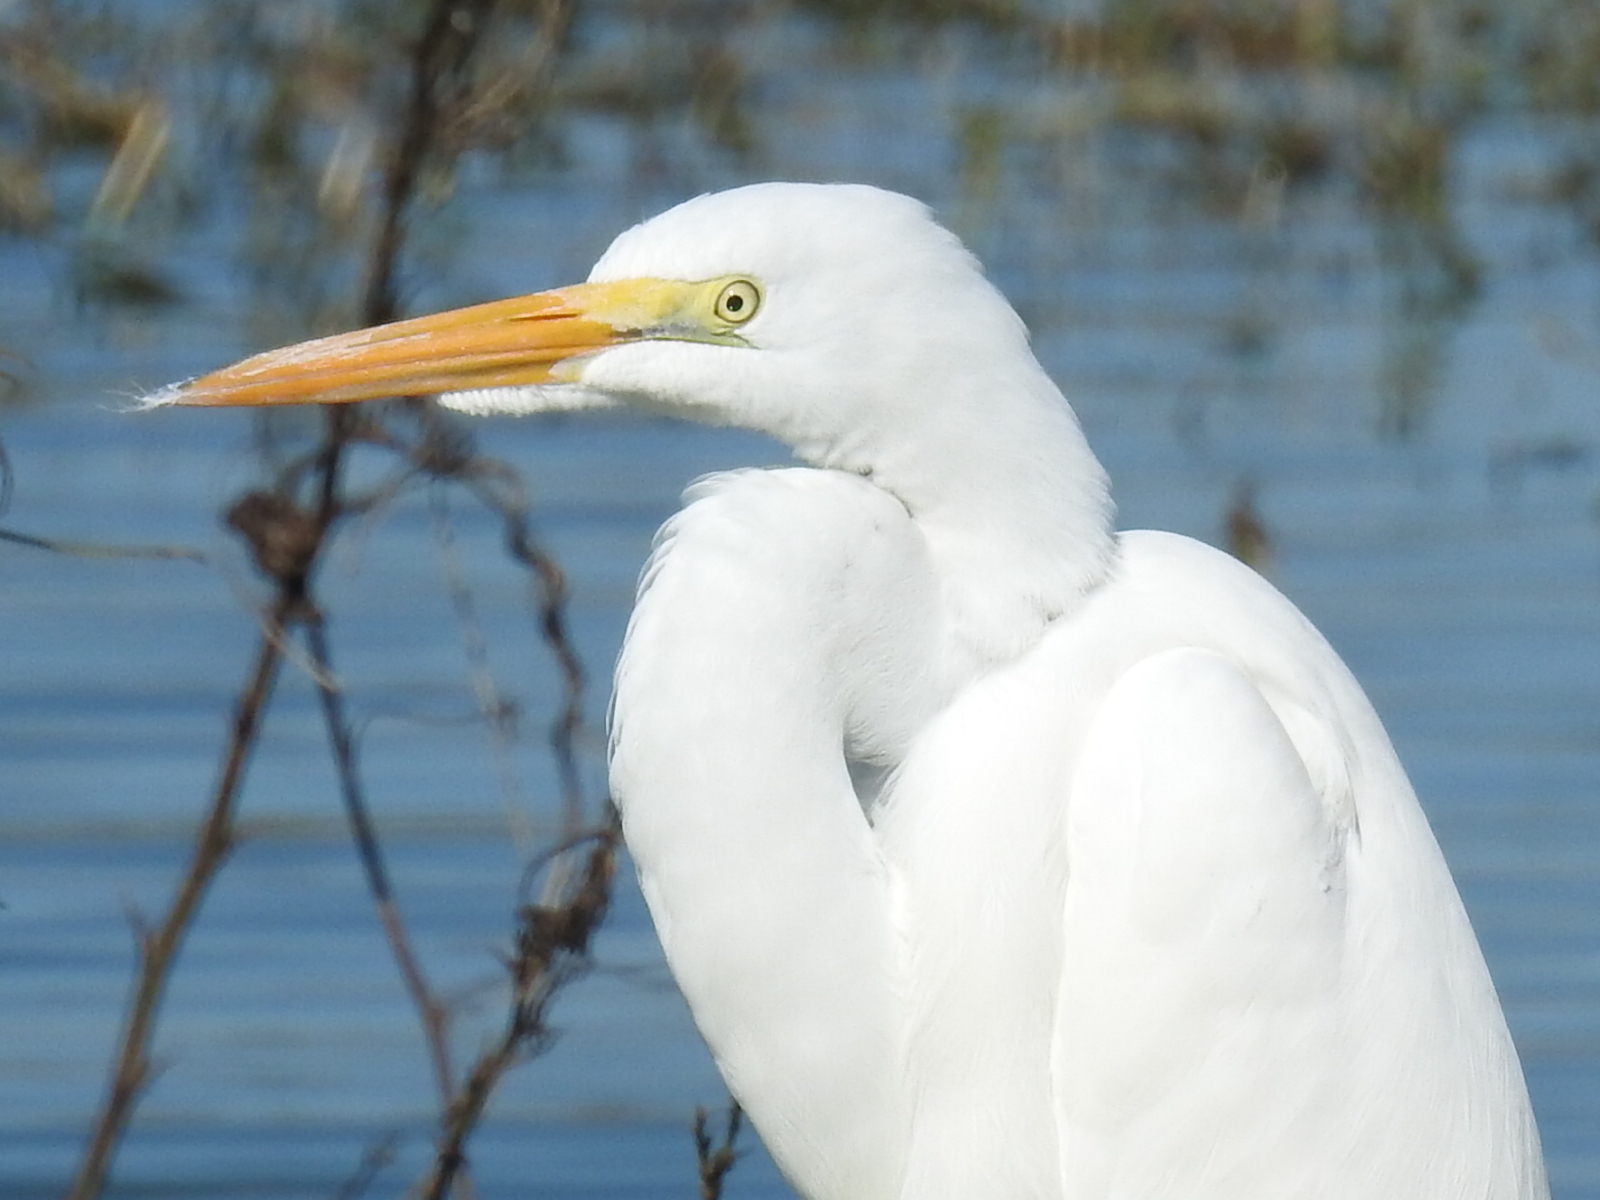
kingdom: Animalia
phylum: Chordata
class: Aves
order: Pelecaniformes
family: Ardeidae
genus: Ardea
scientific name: Ardea alba
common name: Great egret
